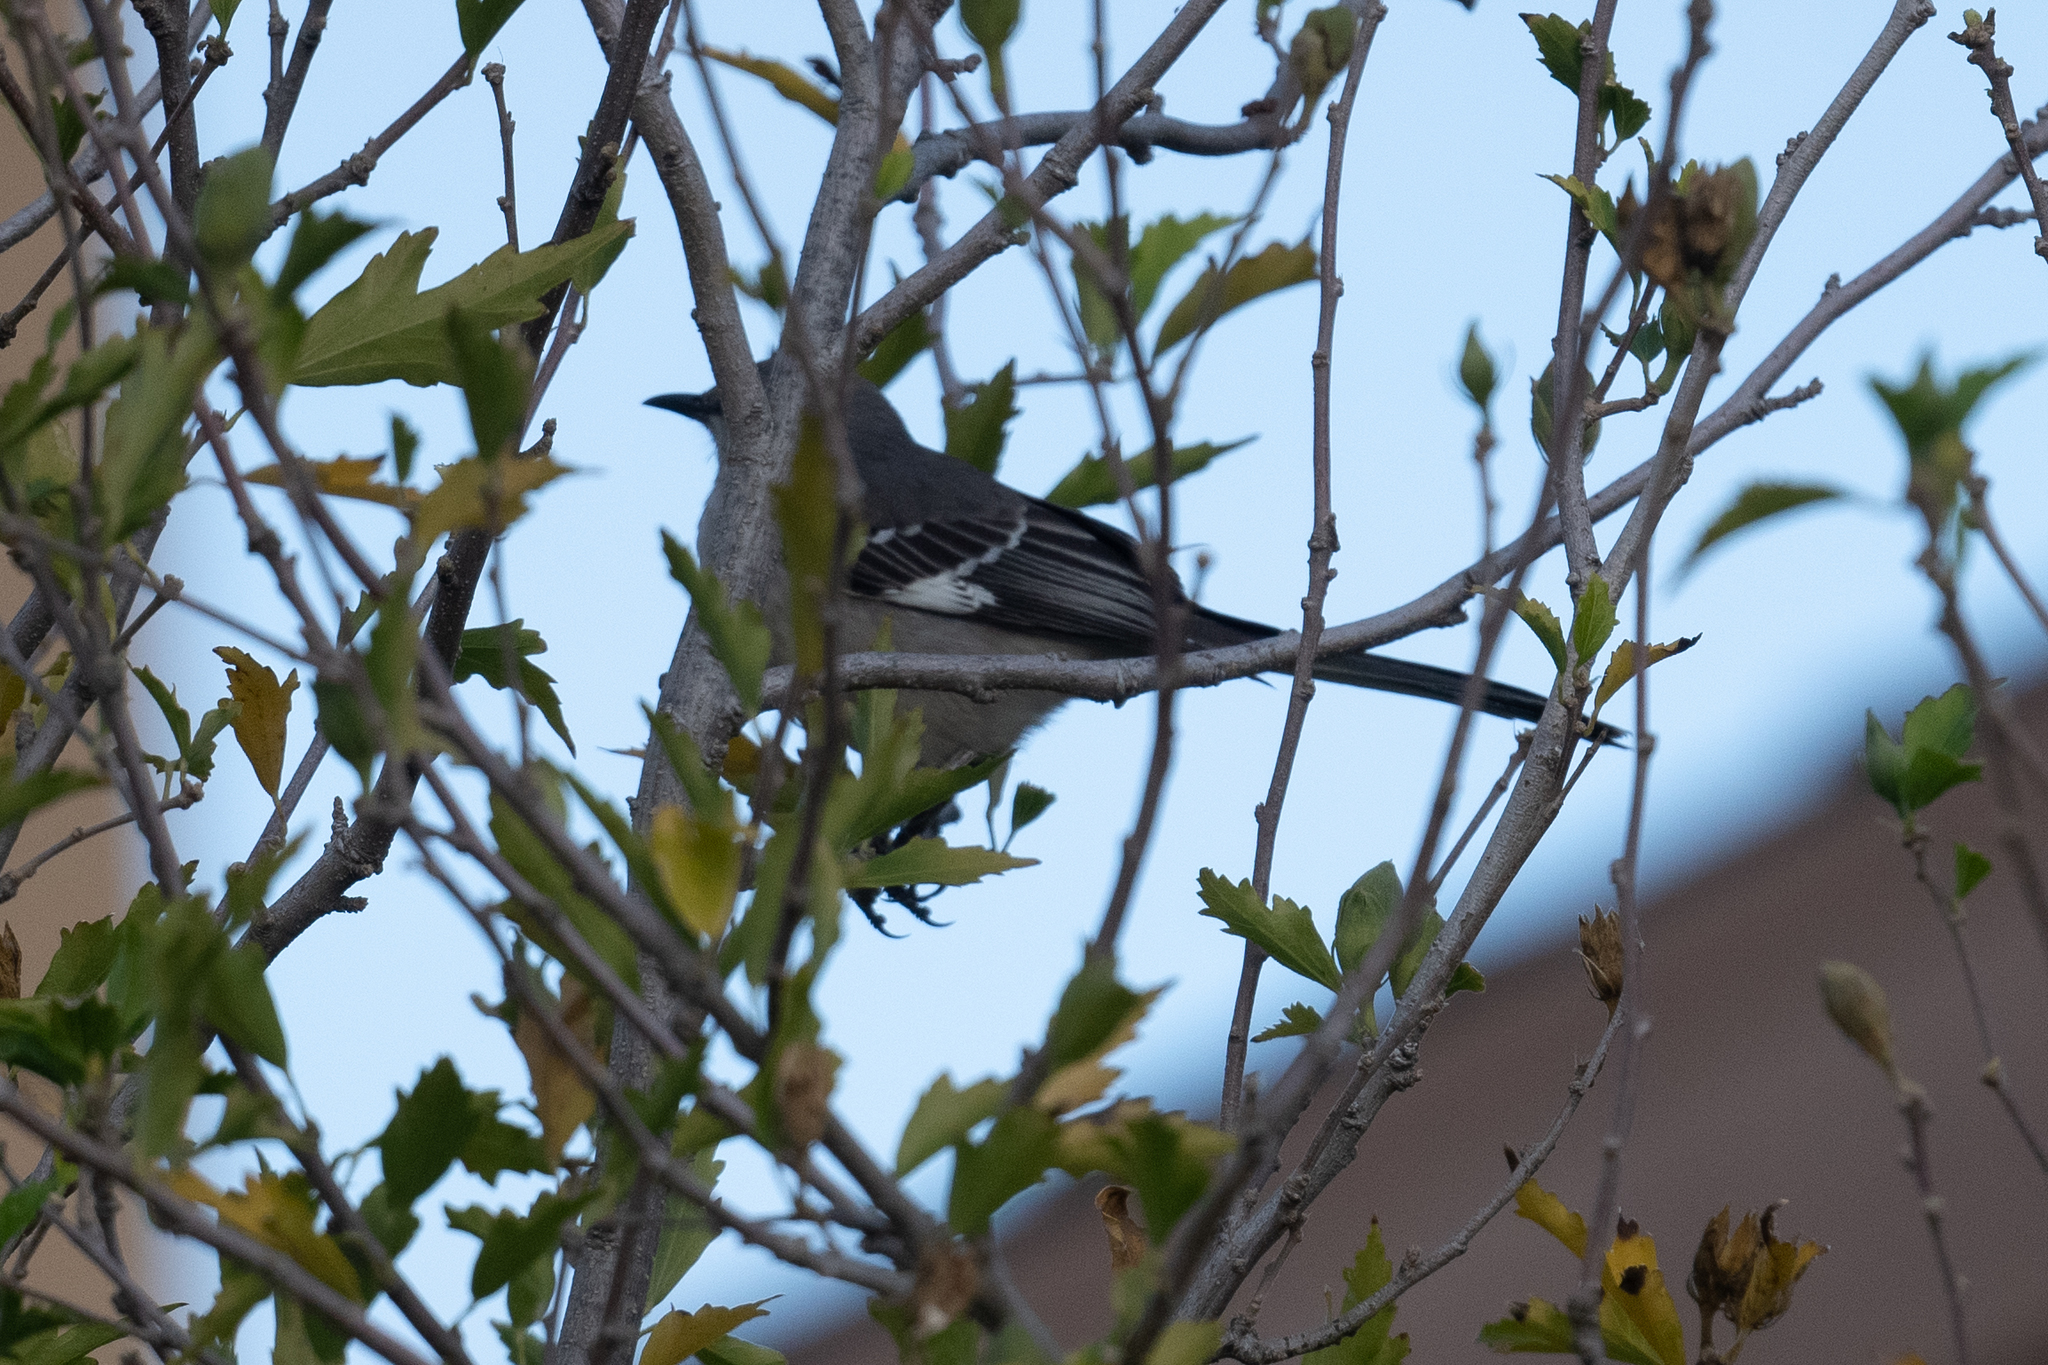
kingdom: Animalia
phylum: Chordata
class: Aves
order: Passeriformes
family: Mimidae
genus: Mimus
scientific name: Mimus polyglottos
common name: Northern mockingbird
